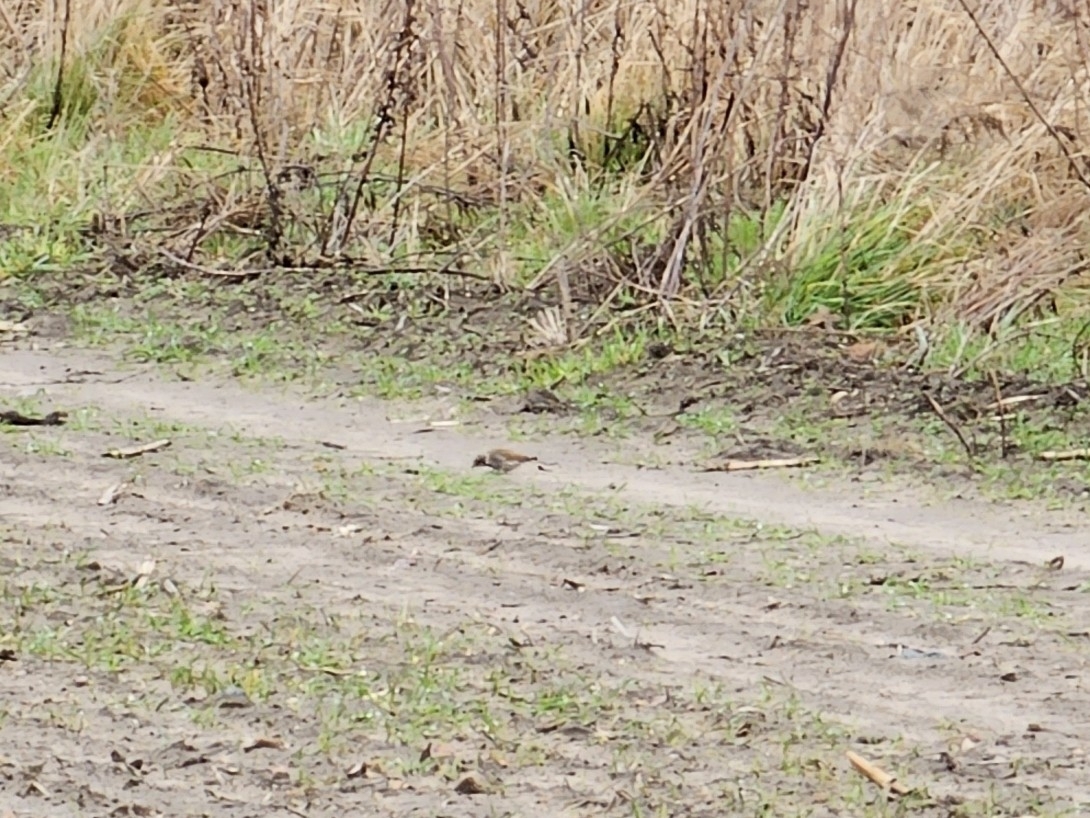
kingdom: Animalia
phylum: Chordata
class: Aves
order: Passeriformes
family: Emberizidae
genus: Emberiza
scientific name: Emberiza schoeniclus
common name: Reed bunting
